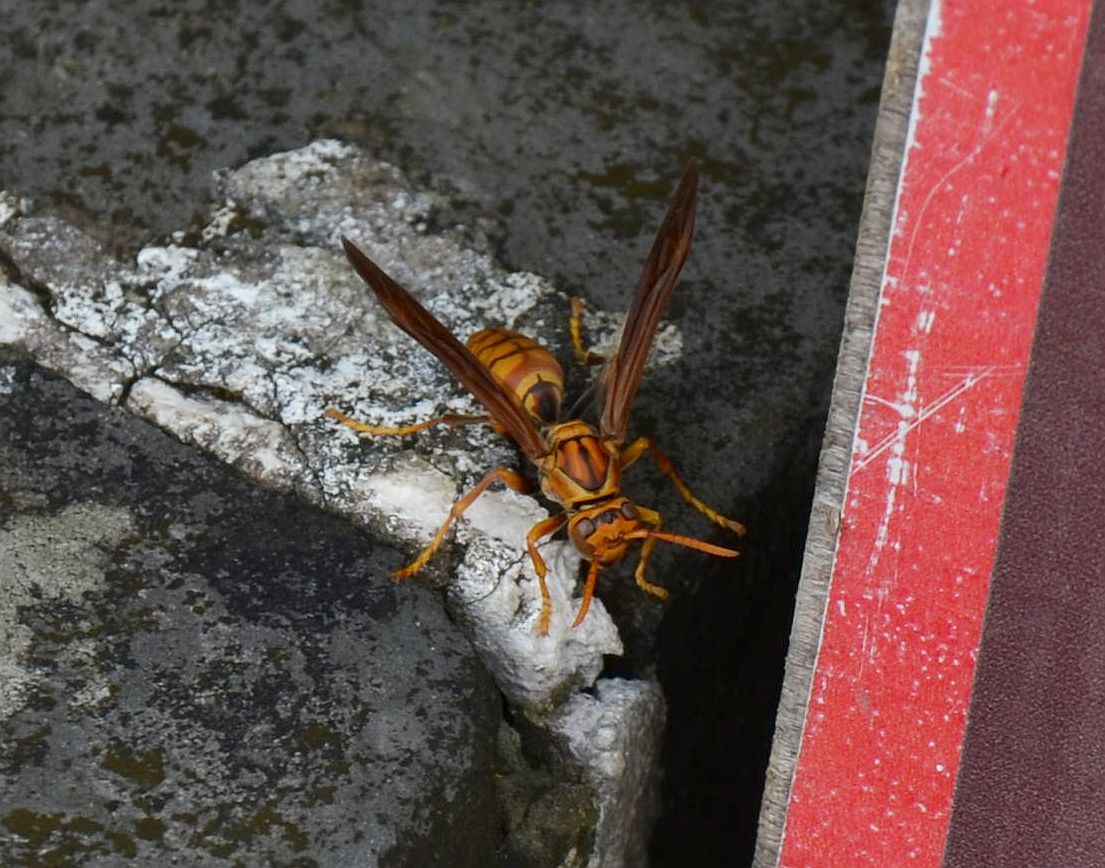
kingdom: Animalia
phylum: Arthropoda
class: Insecta
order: Hymenoptera
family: Eumenidae
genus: Polistes
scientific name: Polistes olivaceus
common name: Paper wasp
